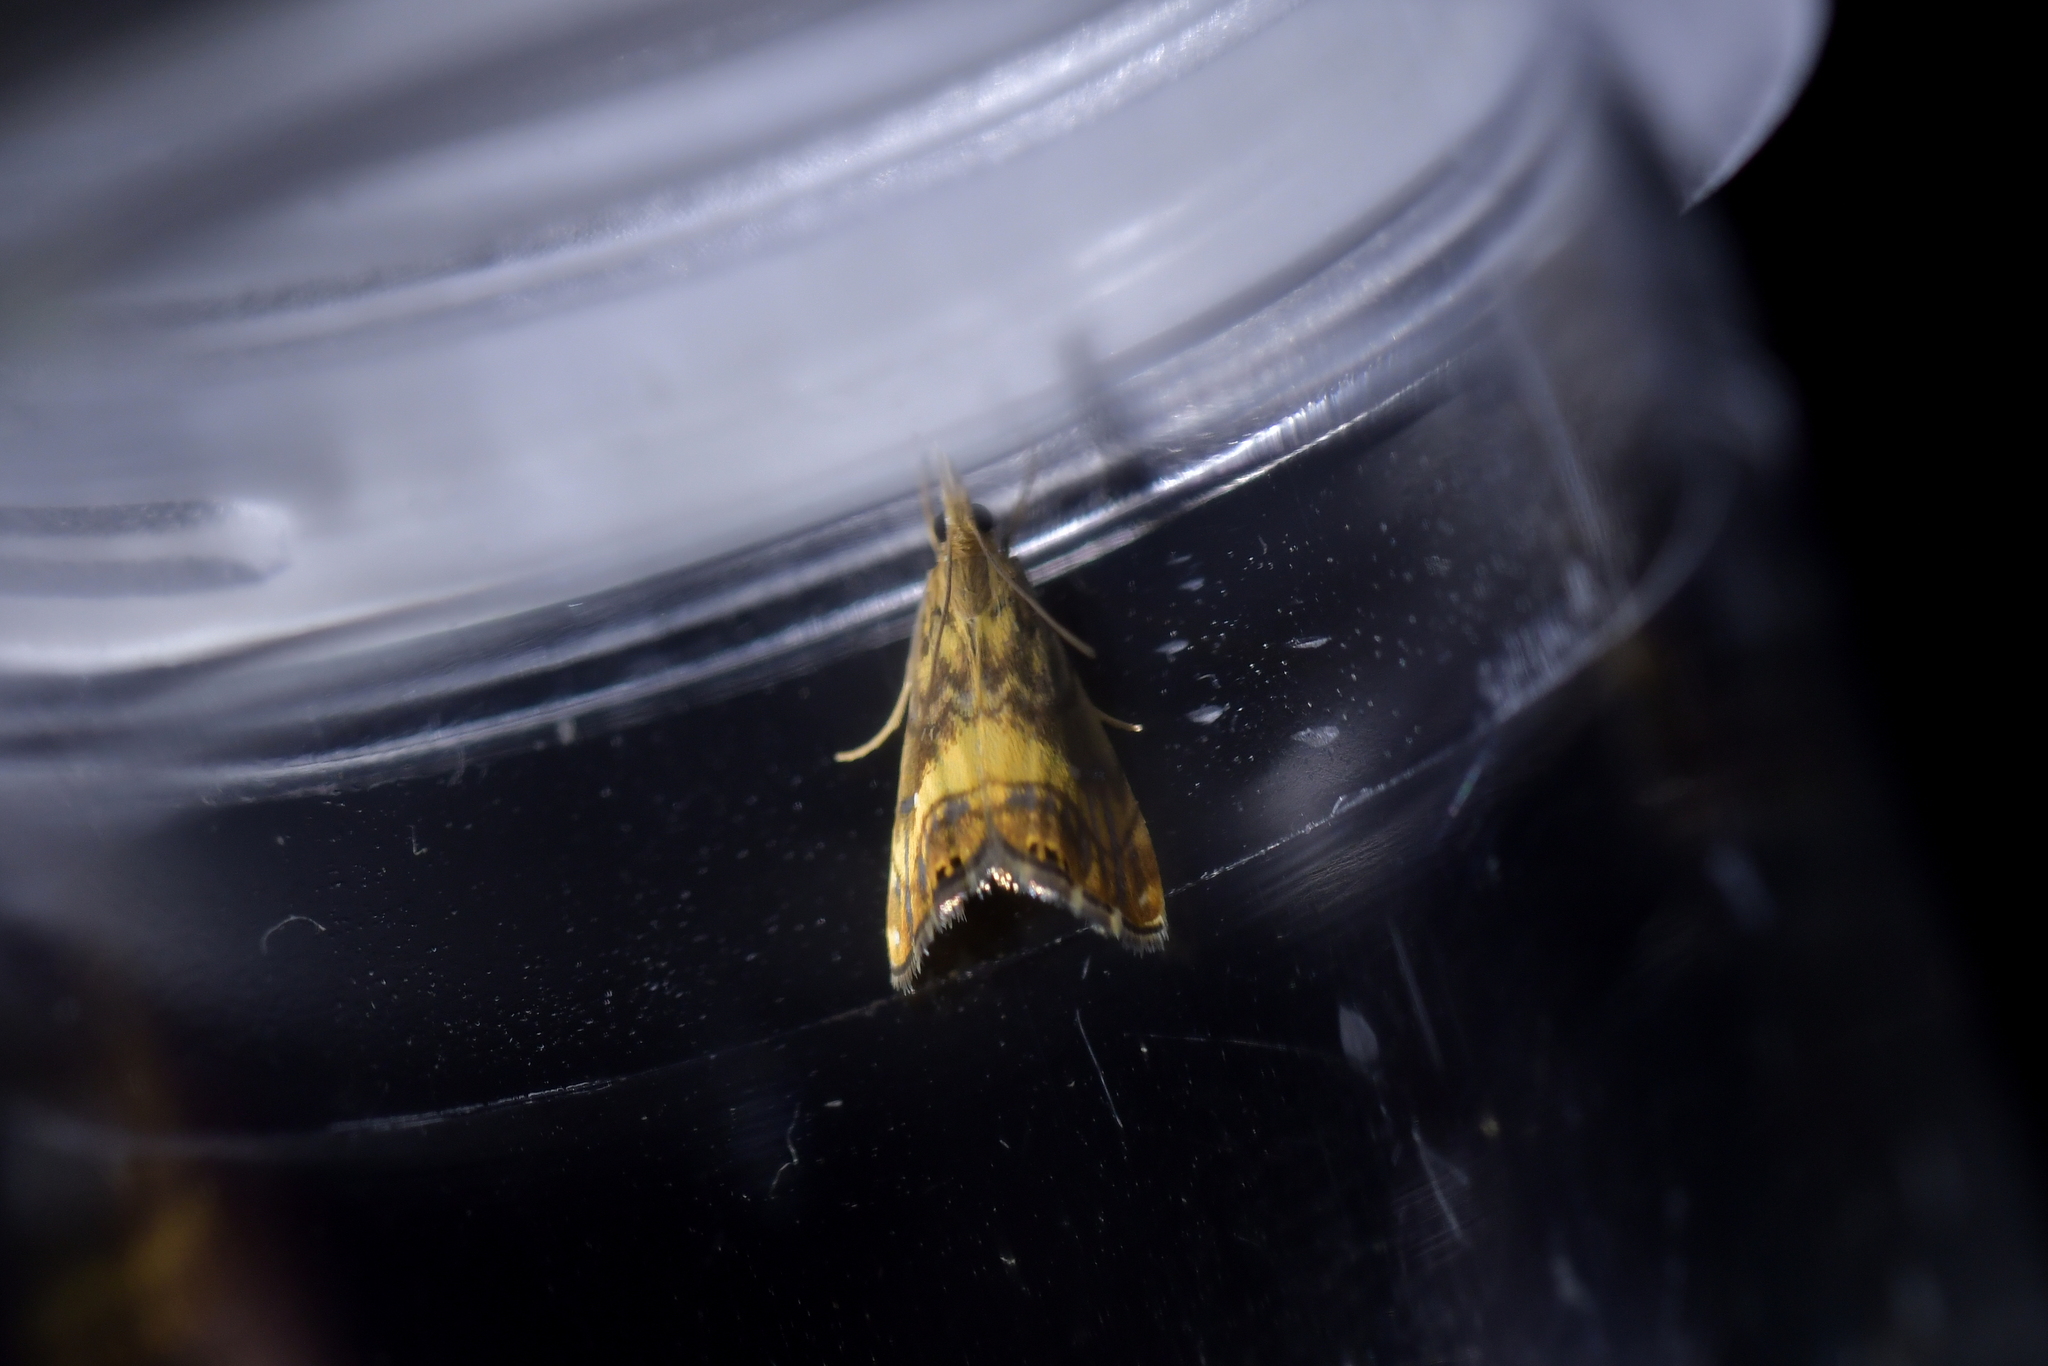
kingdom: Animalia
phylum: Arthropoda
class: Insecta
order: Lepidoptera
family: Crambidae
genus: Glaucocharis
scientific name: Glaucocharis chrysochyta
